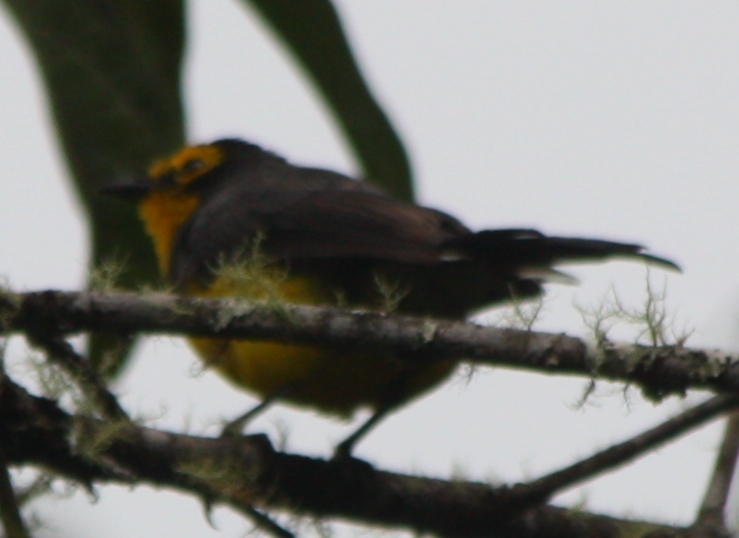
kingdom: Animalia
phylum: Chordata
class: Aves
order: Passeriformes
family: Parulidae
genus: Myioborus
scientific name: Myioborus melanocephalus
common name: Spectacled whitestart
